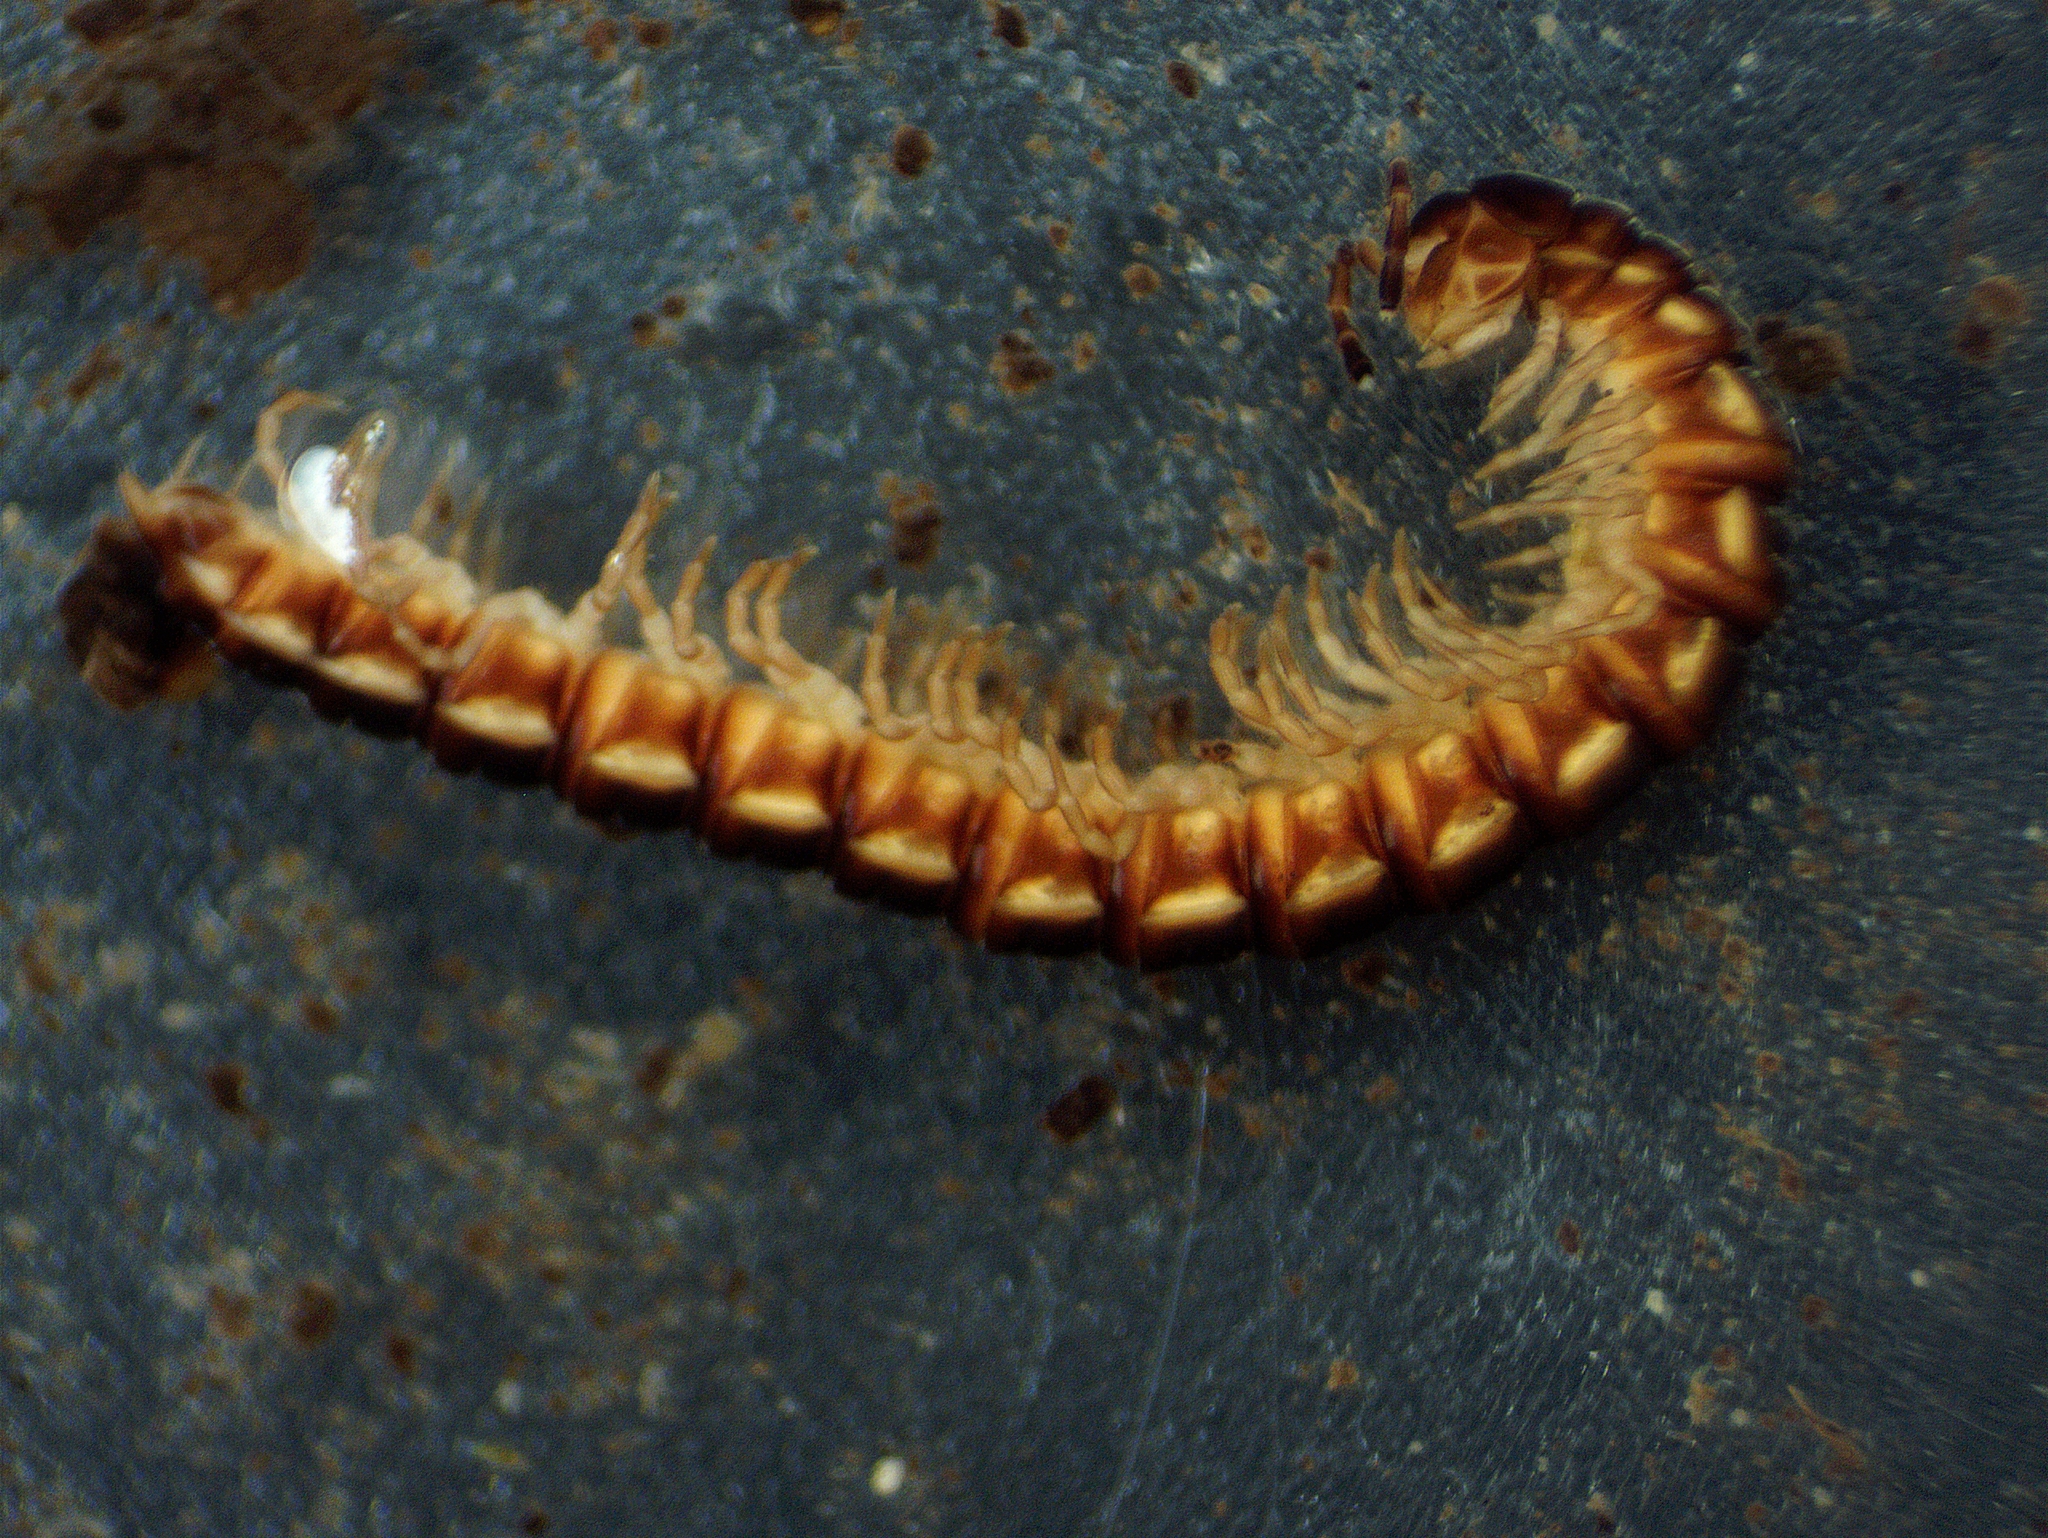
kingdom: Animalia
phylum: Arthropoda
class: Diplopoda
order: Polydesmida
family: Paradoxosomatidae
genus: Oxidus
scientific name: Oxidus gracilis
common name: Greenhouse millipede
